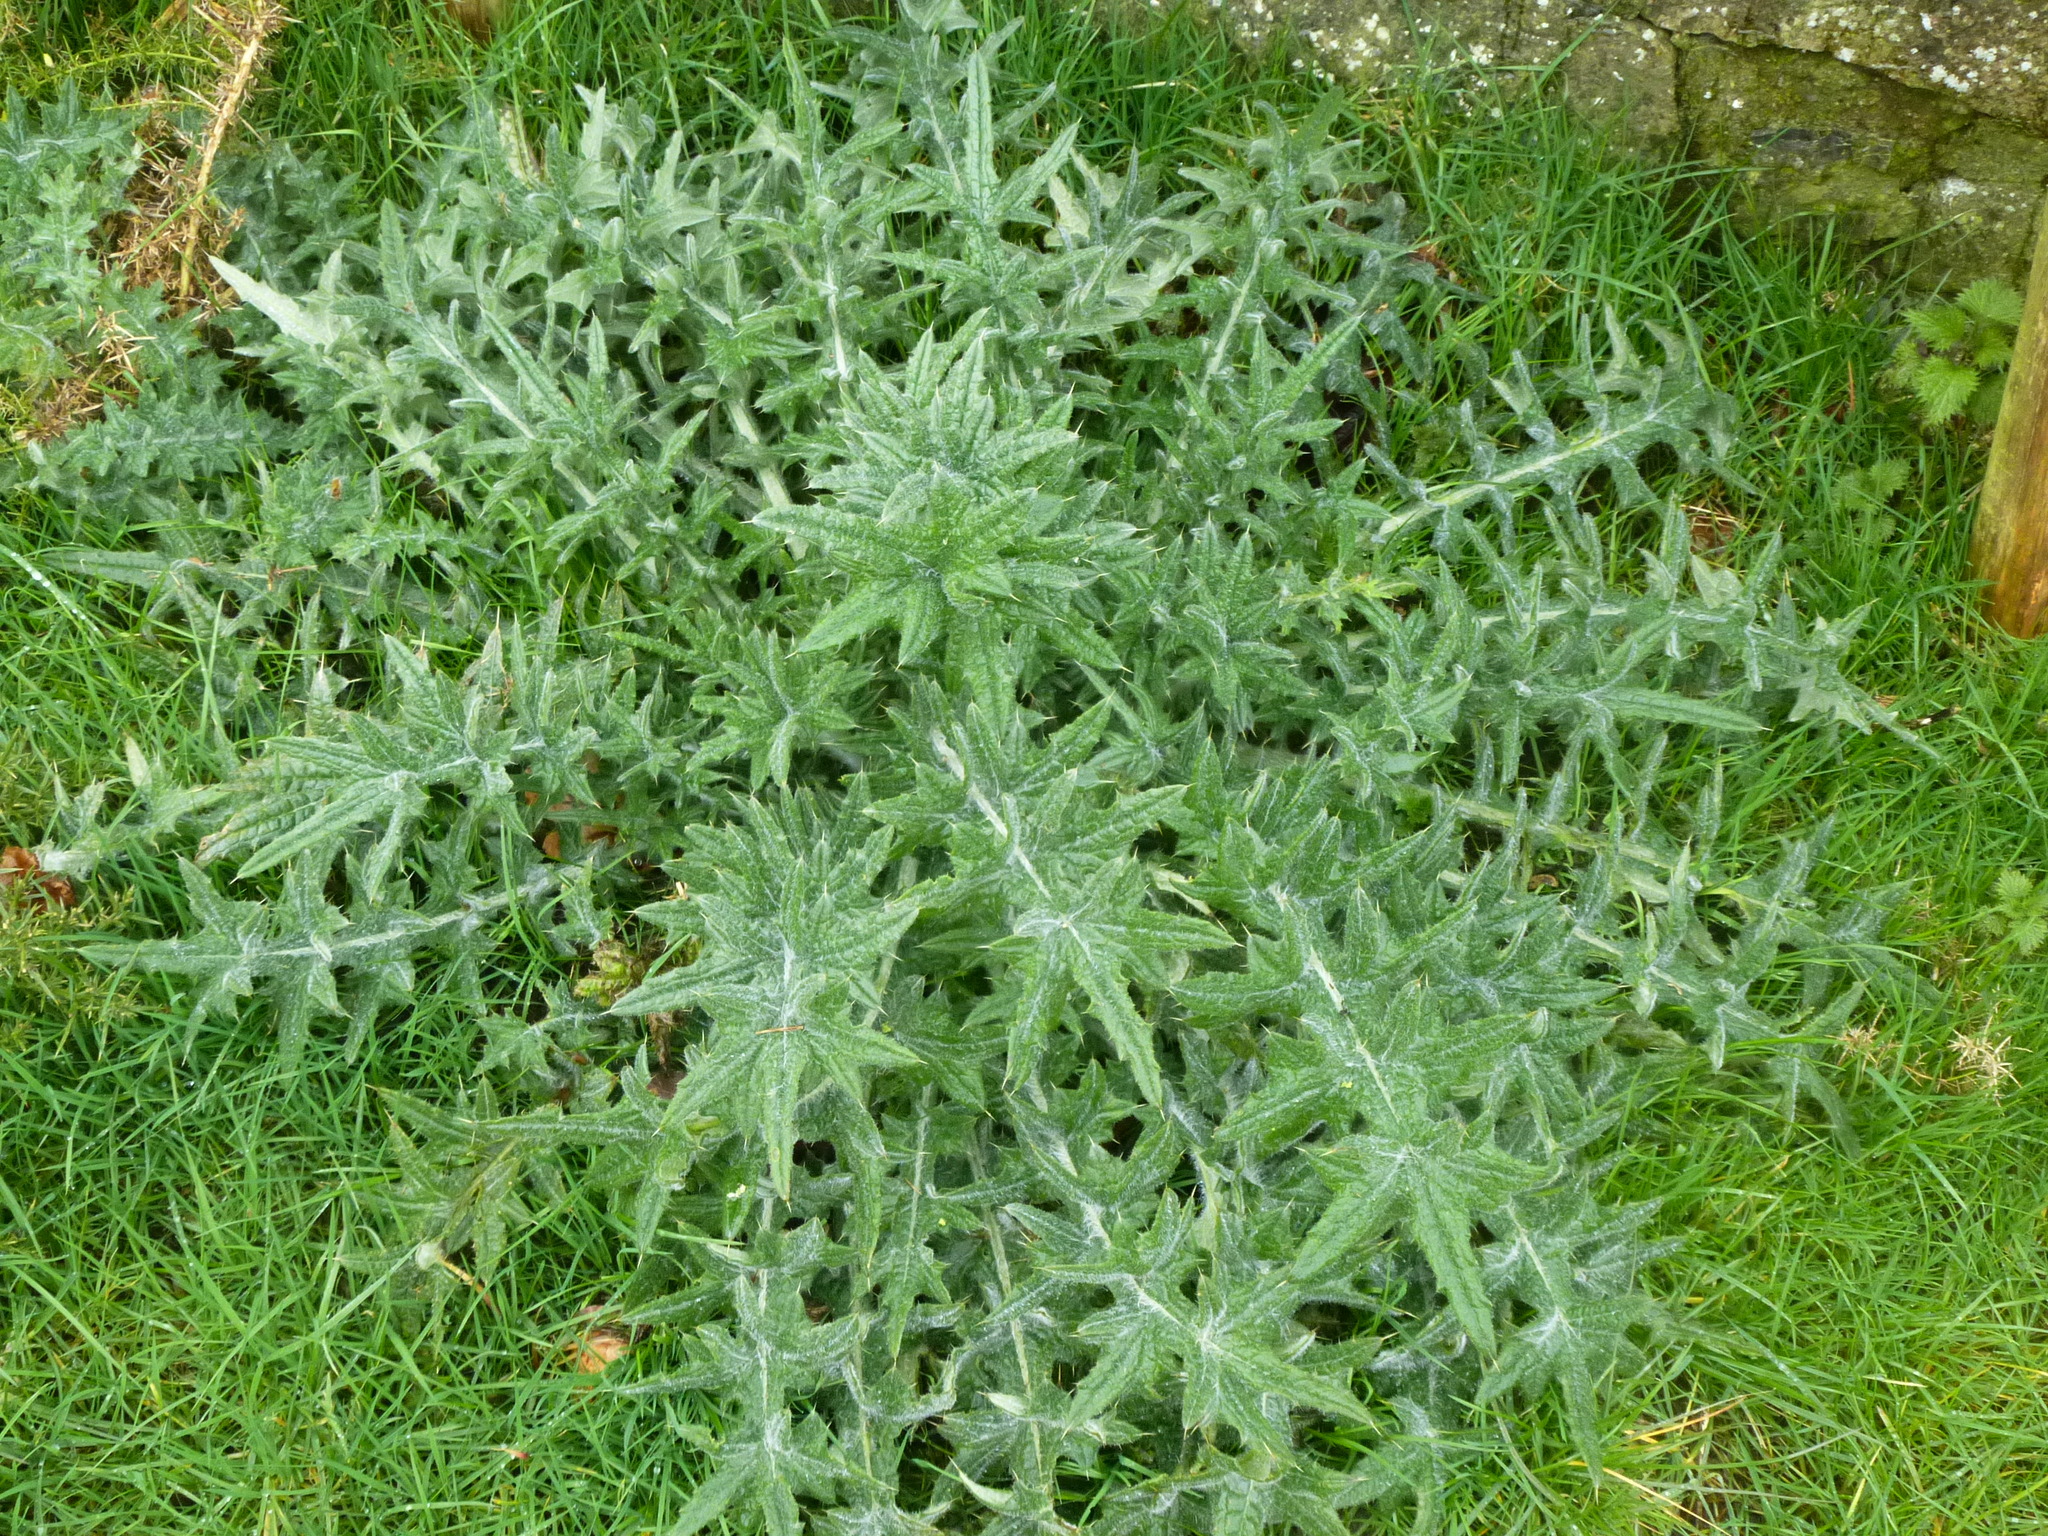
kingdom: Plantae
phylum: Tracheophyta
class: Magnoliopsida
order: Asterales
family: Asteraceae
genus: Cirsium
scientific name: Cirsium vulgare
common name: Bull thistle
